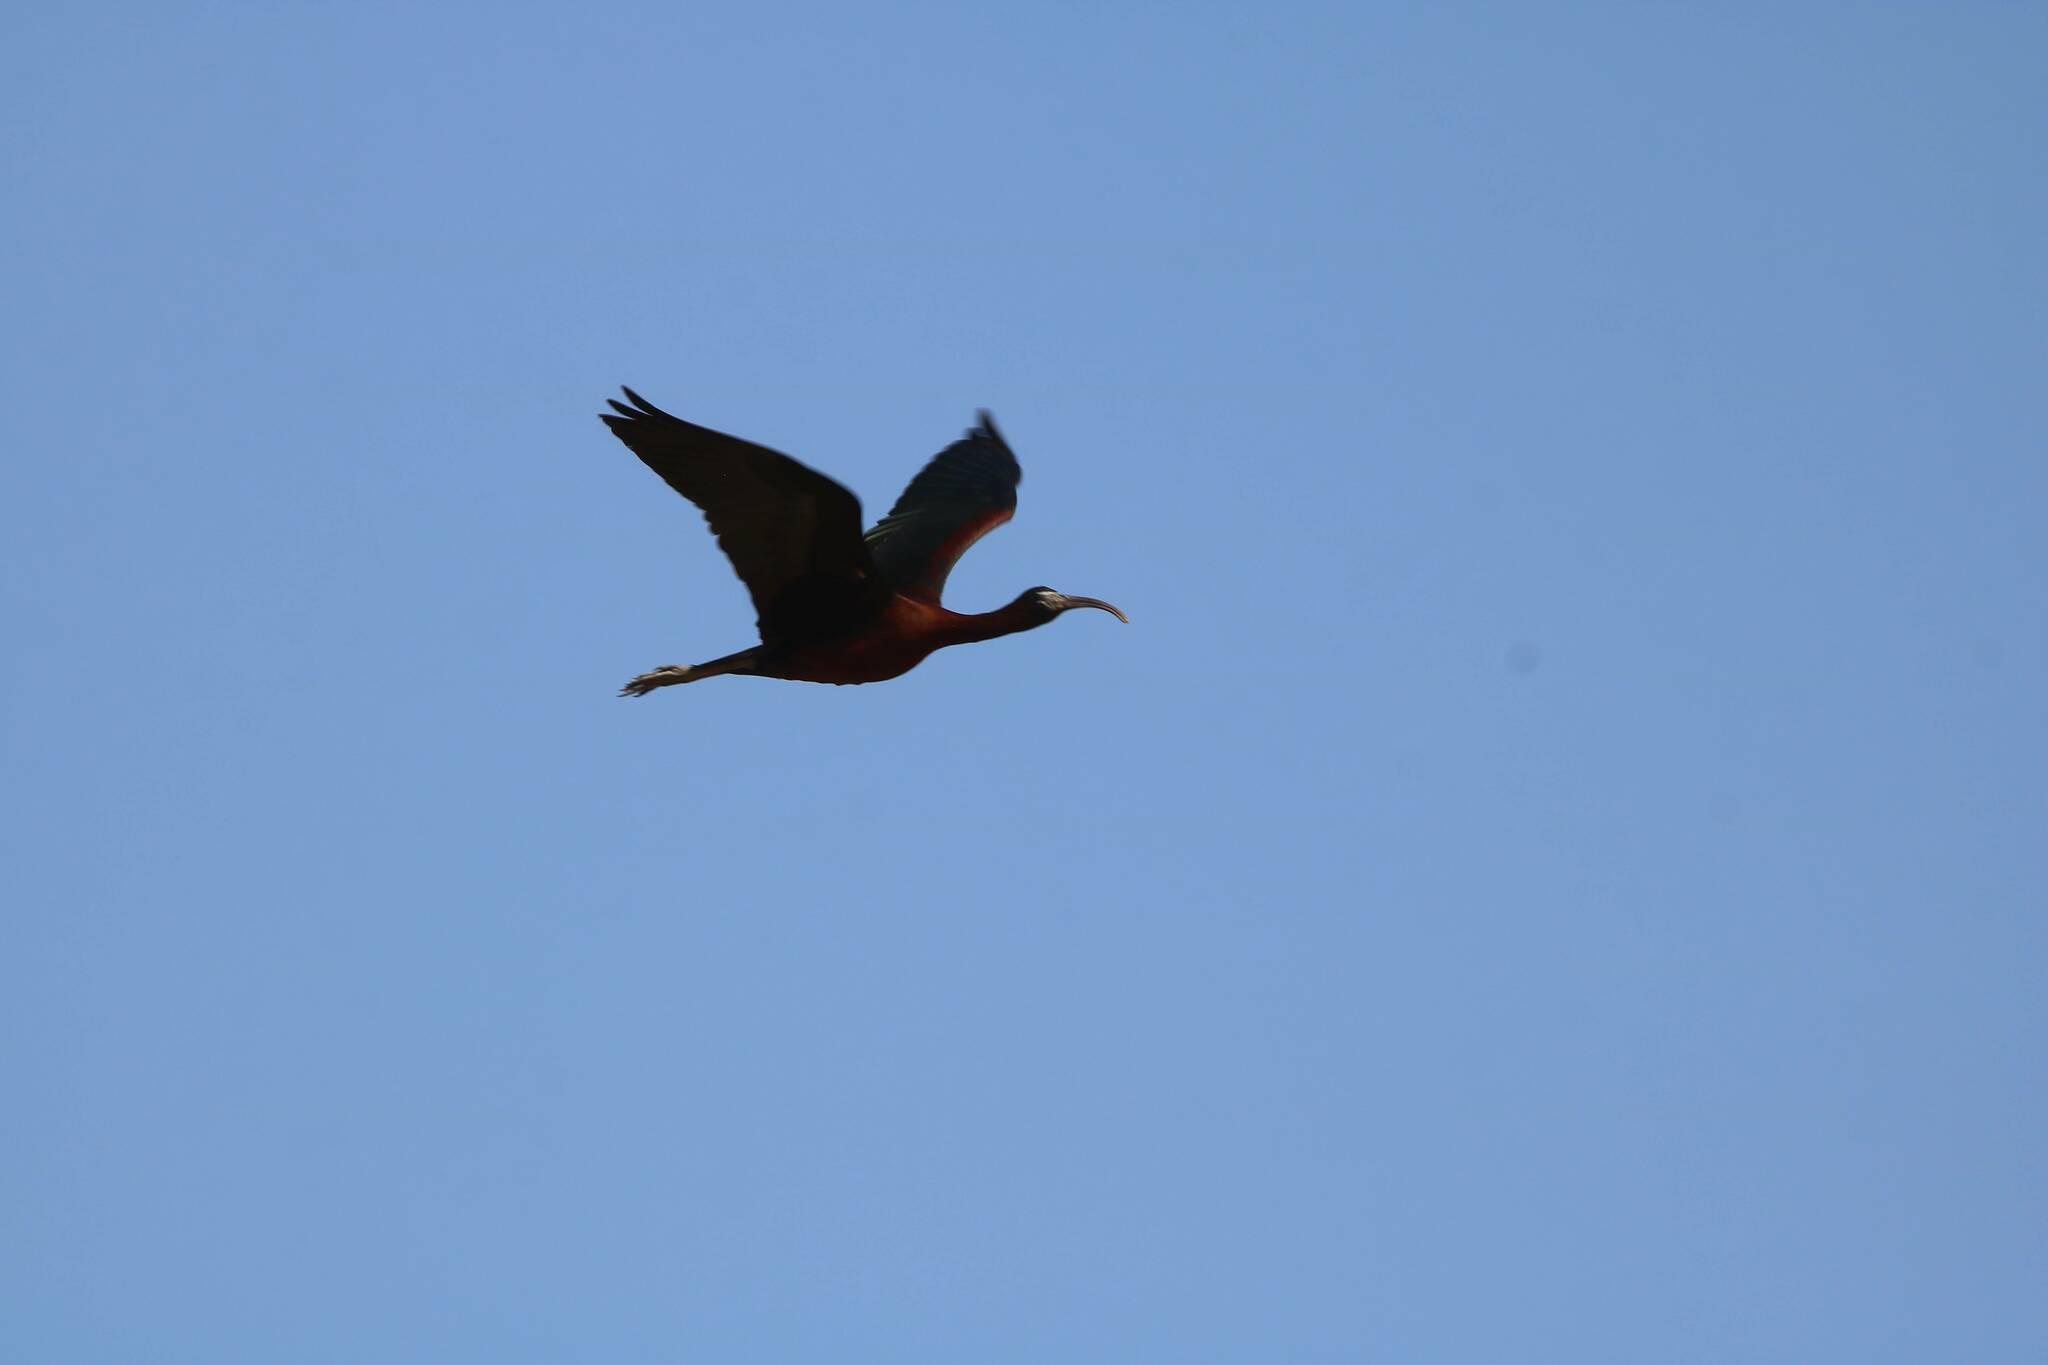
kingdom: Animalia
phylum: Chordata
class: Aves
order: Pelecaniformes
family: Threskiornithidae
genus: Plegadis
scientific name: Plegadis falcinellus
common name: Glossy ibis
